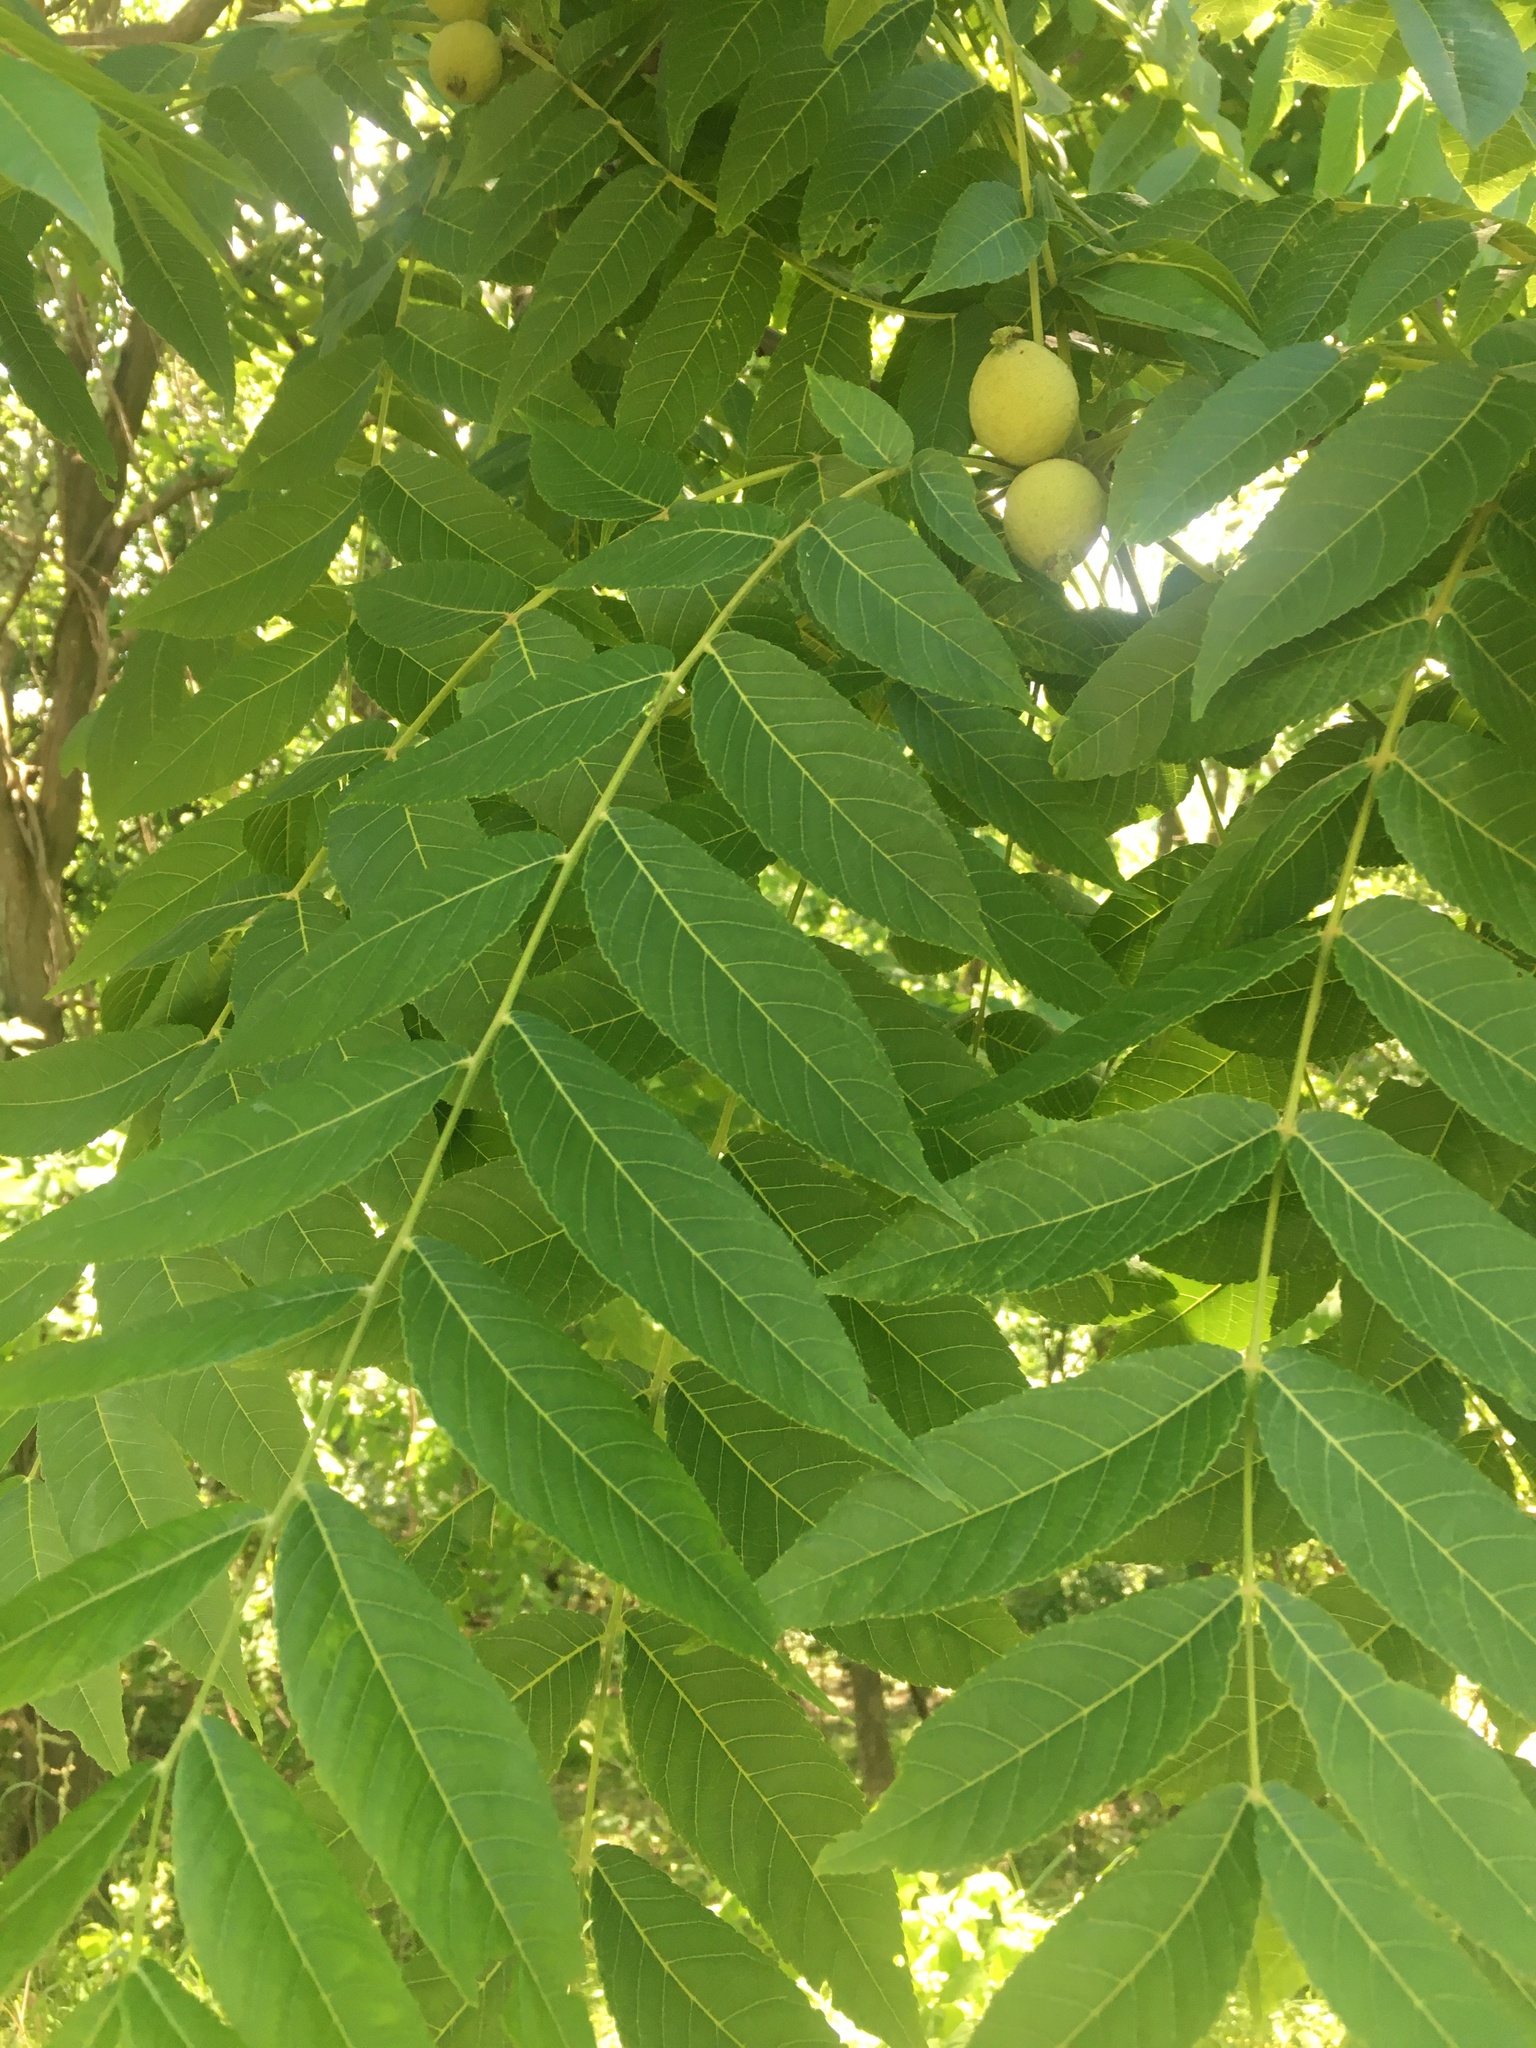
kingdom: Plantae
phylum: Tracheophyta
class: Magnoliopsida
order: Fagales
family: Juglandaceae
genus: Juglans
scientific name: Juglans nigra
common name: Black walnut
